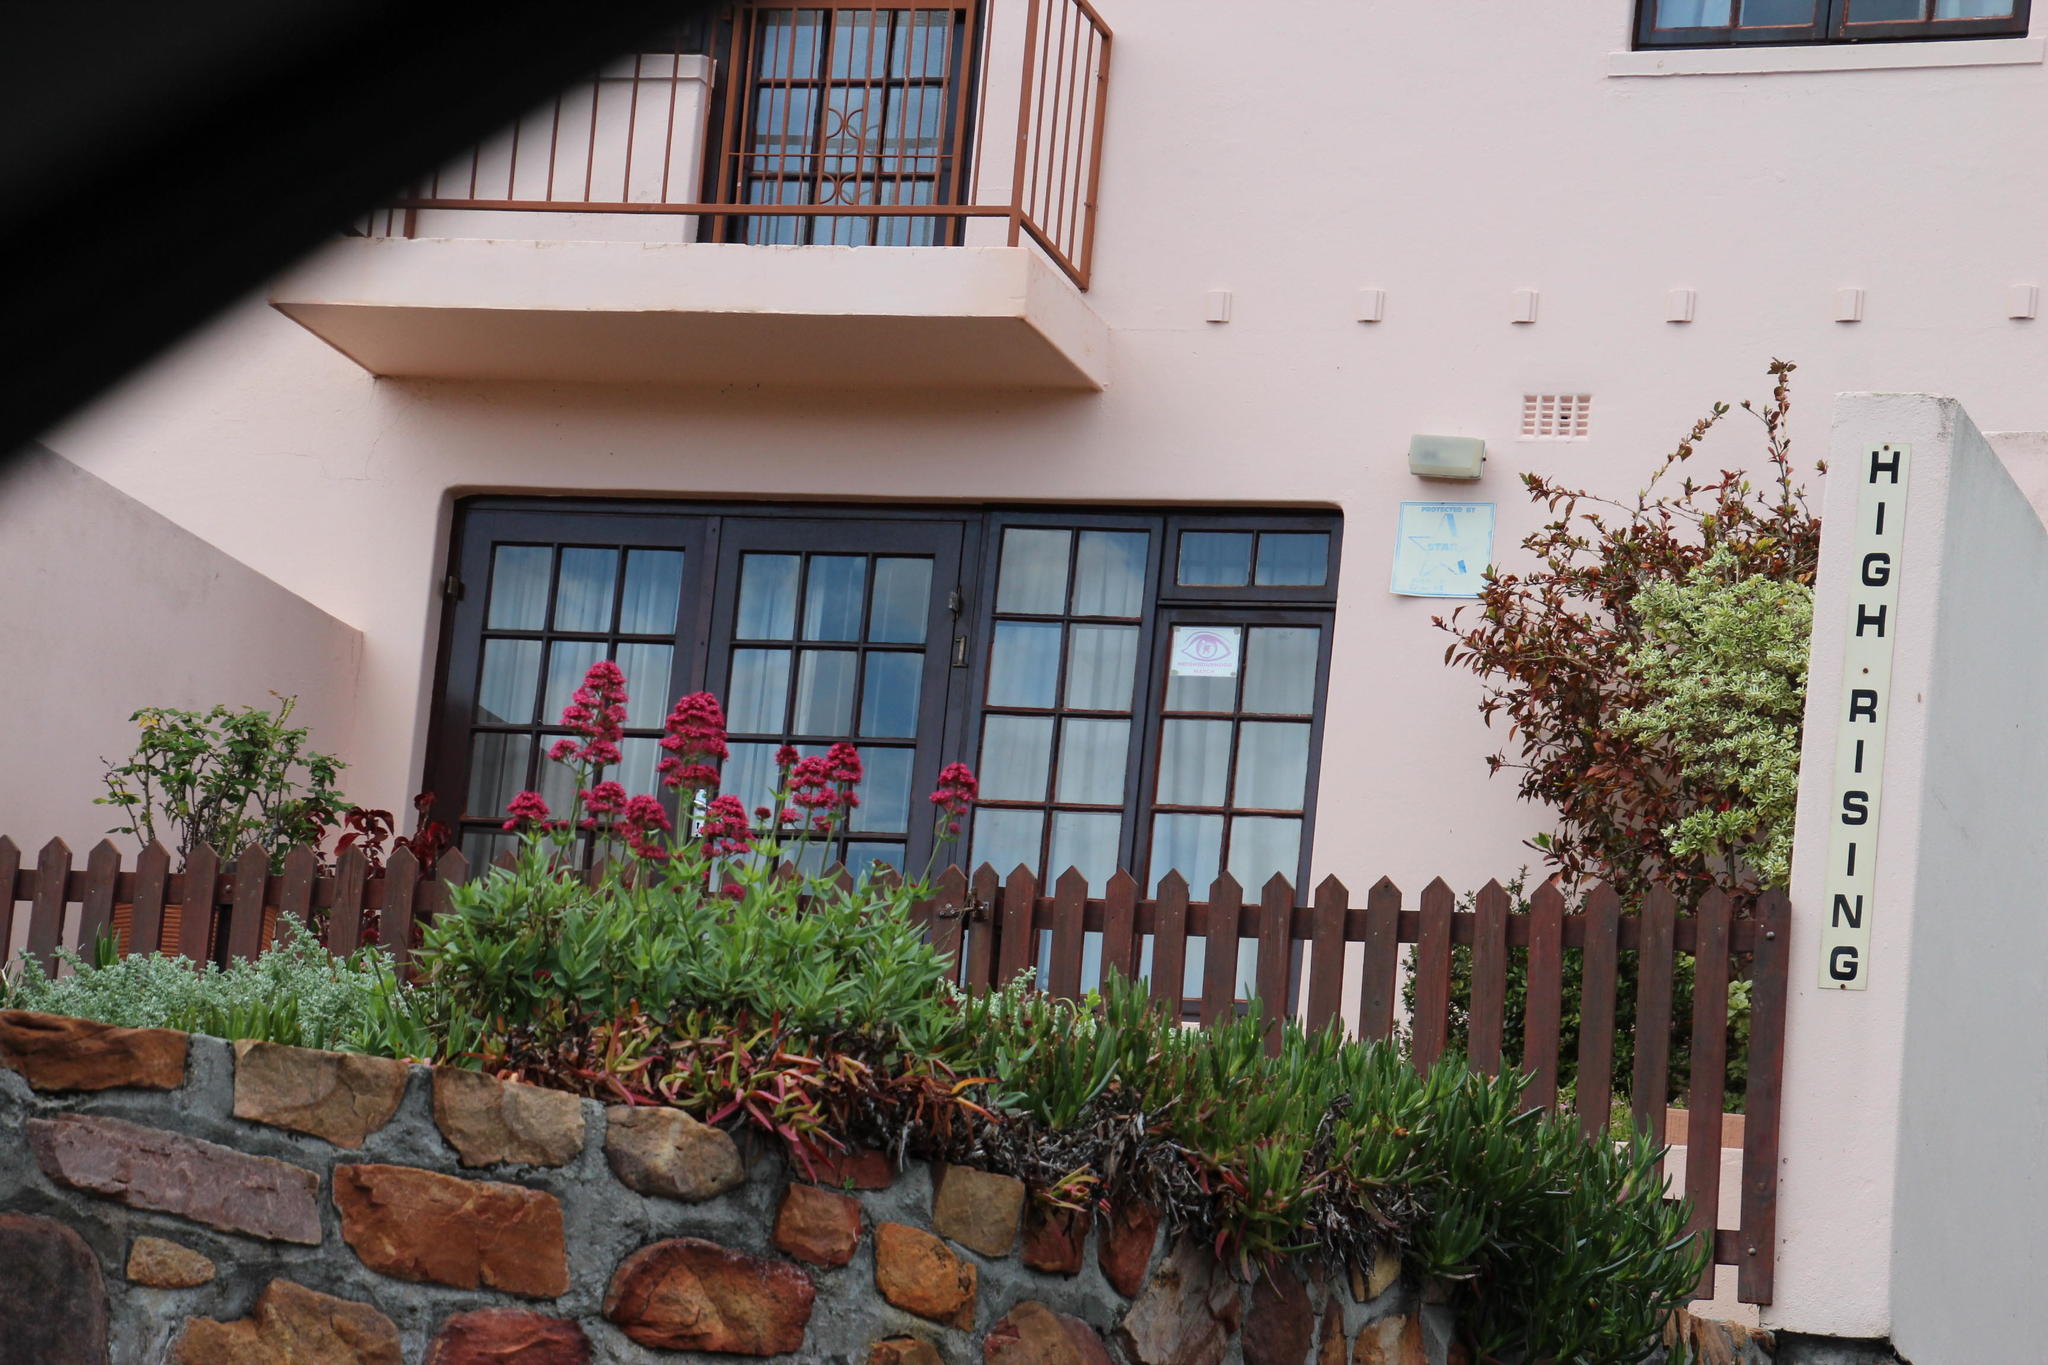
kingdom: Plantae
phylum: Tracheophyta
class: Magnoliopsida
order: Dipsacales
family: Caprifoliaceae
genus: Centranthus
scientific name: Centranthus ruber
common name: Red valerian
